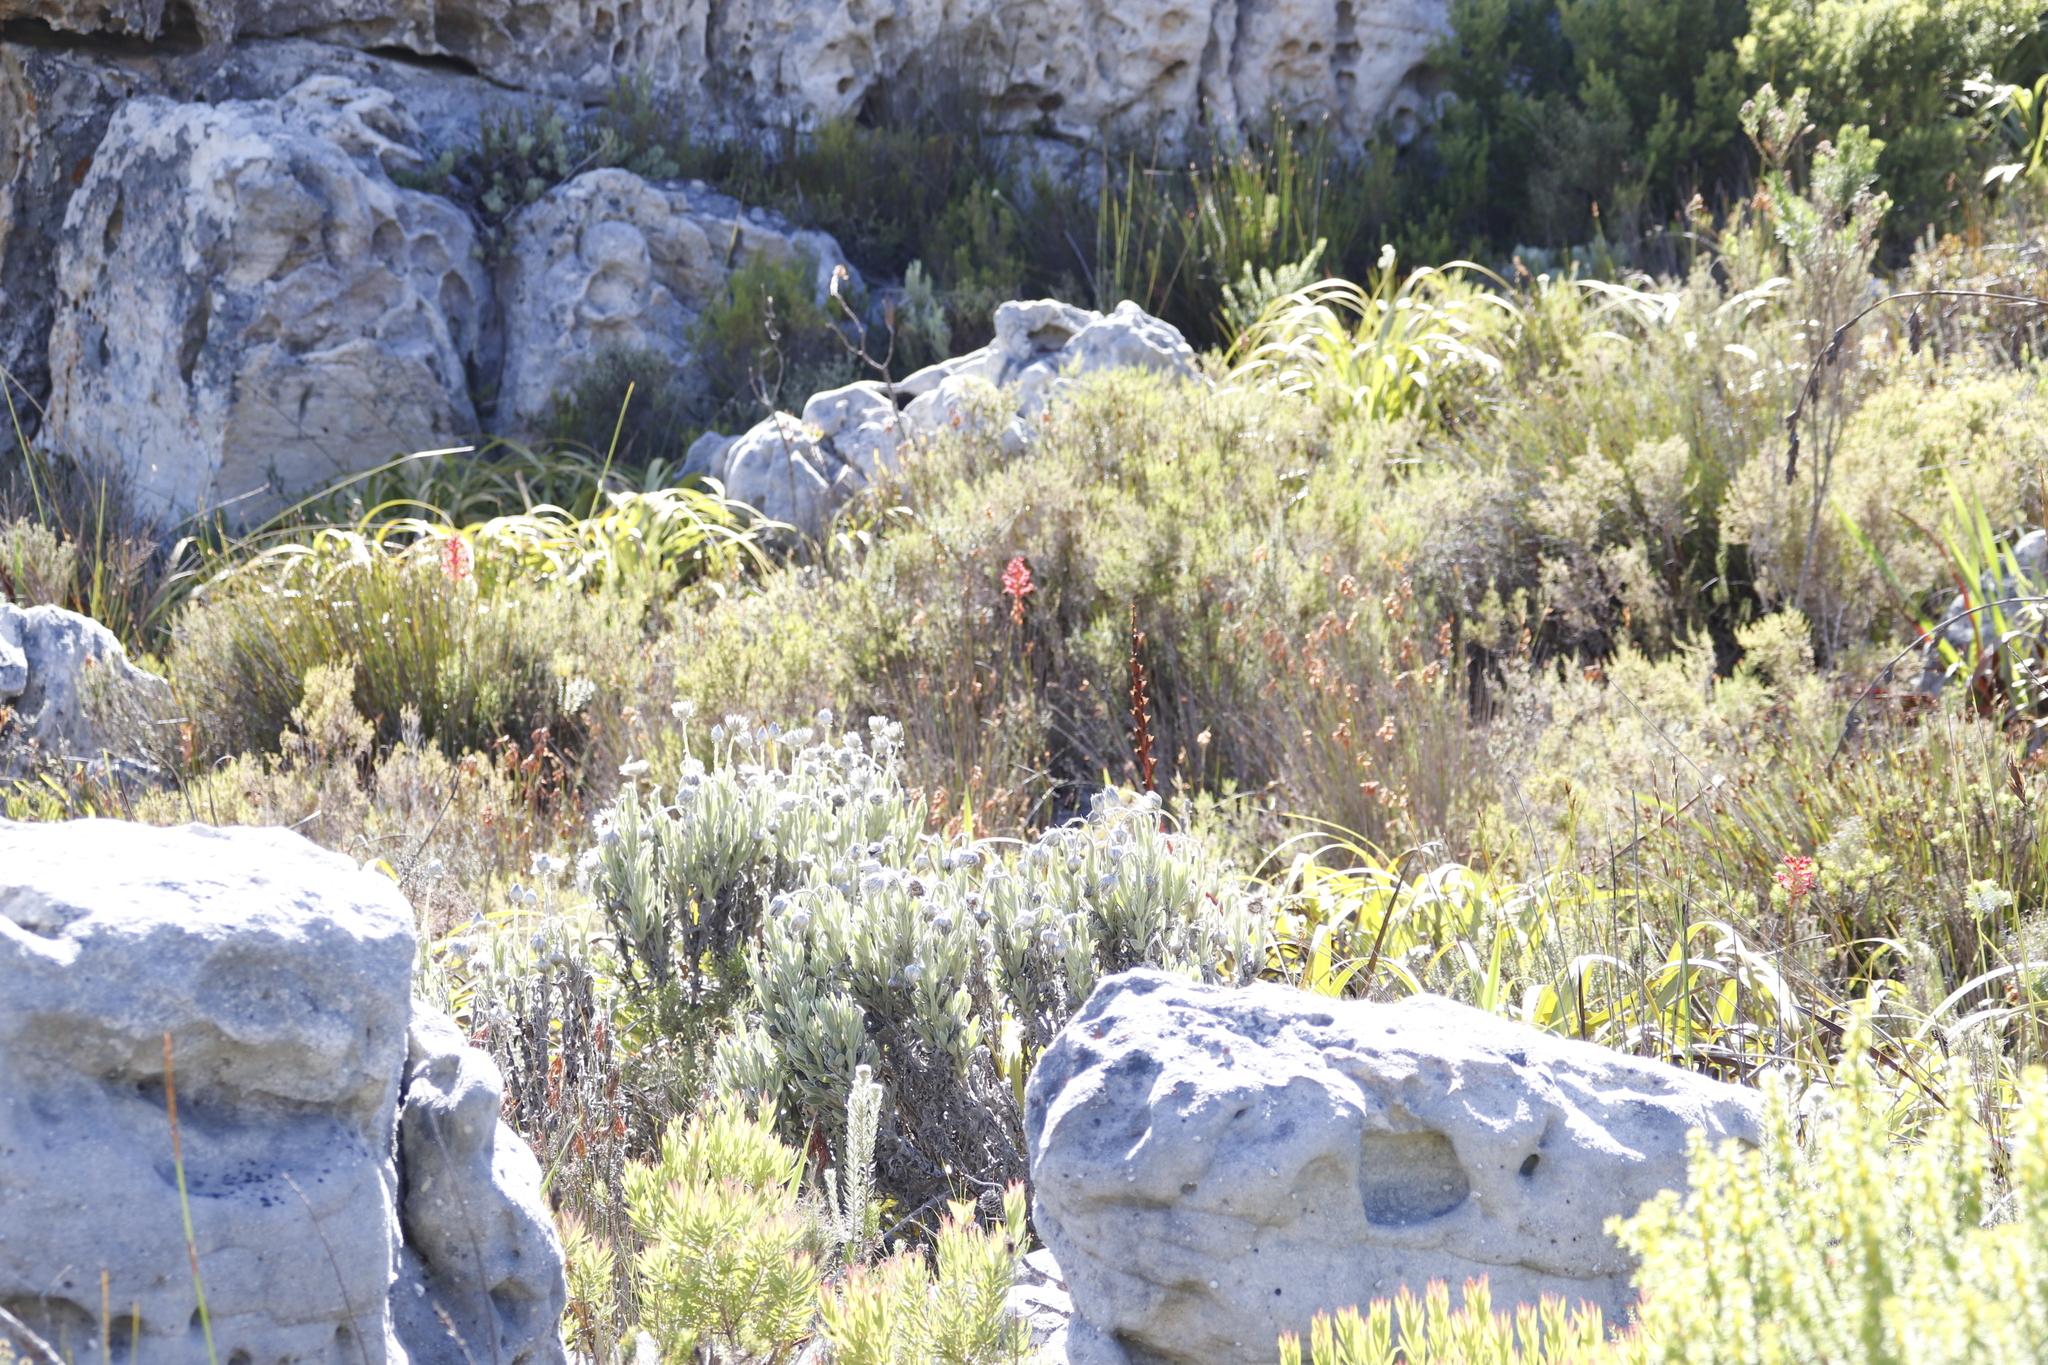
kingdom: Plantae
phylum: Tracheophyta
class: Liliopsida
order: Asparagales
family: Iridaceae
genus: Tritoniopsis
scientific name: Tritoniopsis triticea
